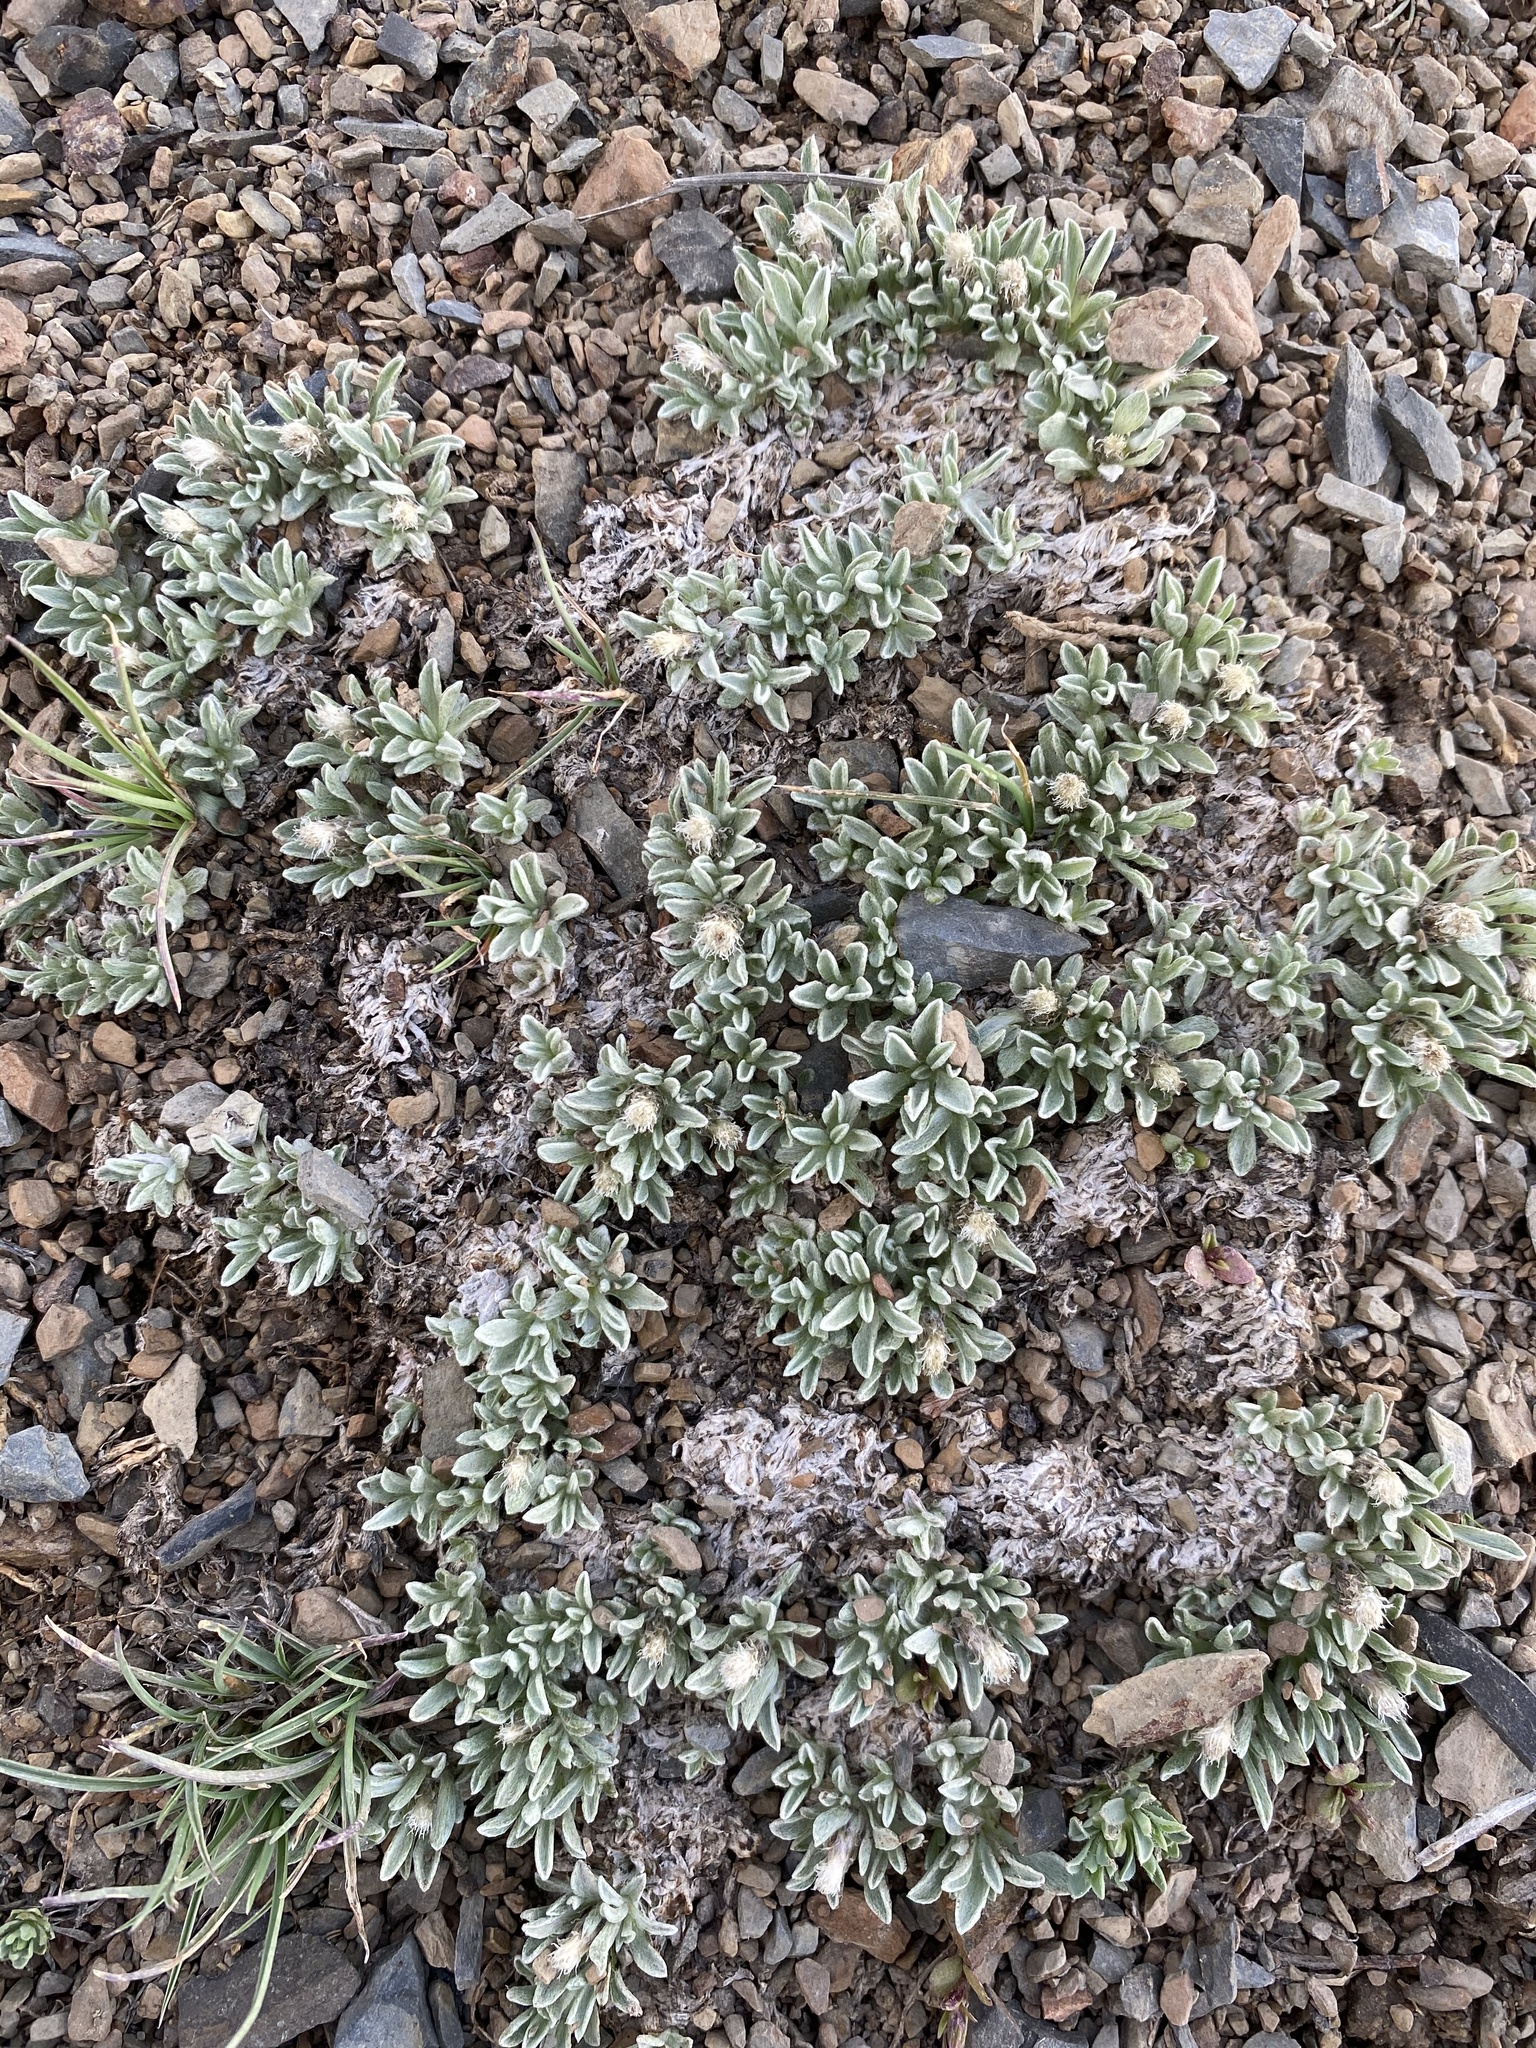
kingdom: Plantae
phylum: Tracheophyta
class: Magnoliopsida
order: Asterales
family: Asteraceae
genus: Antennaria
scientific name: Antennaria dimorpha
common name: Cushion pussytoes
